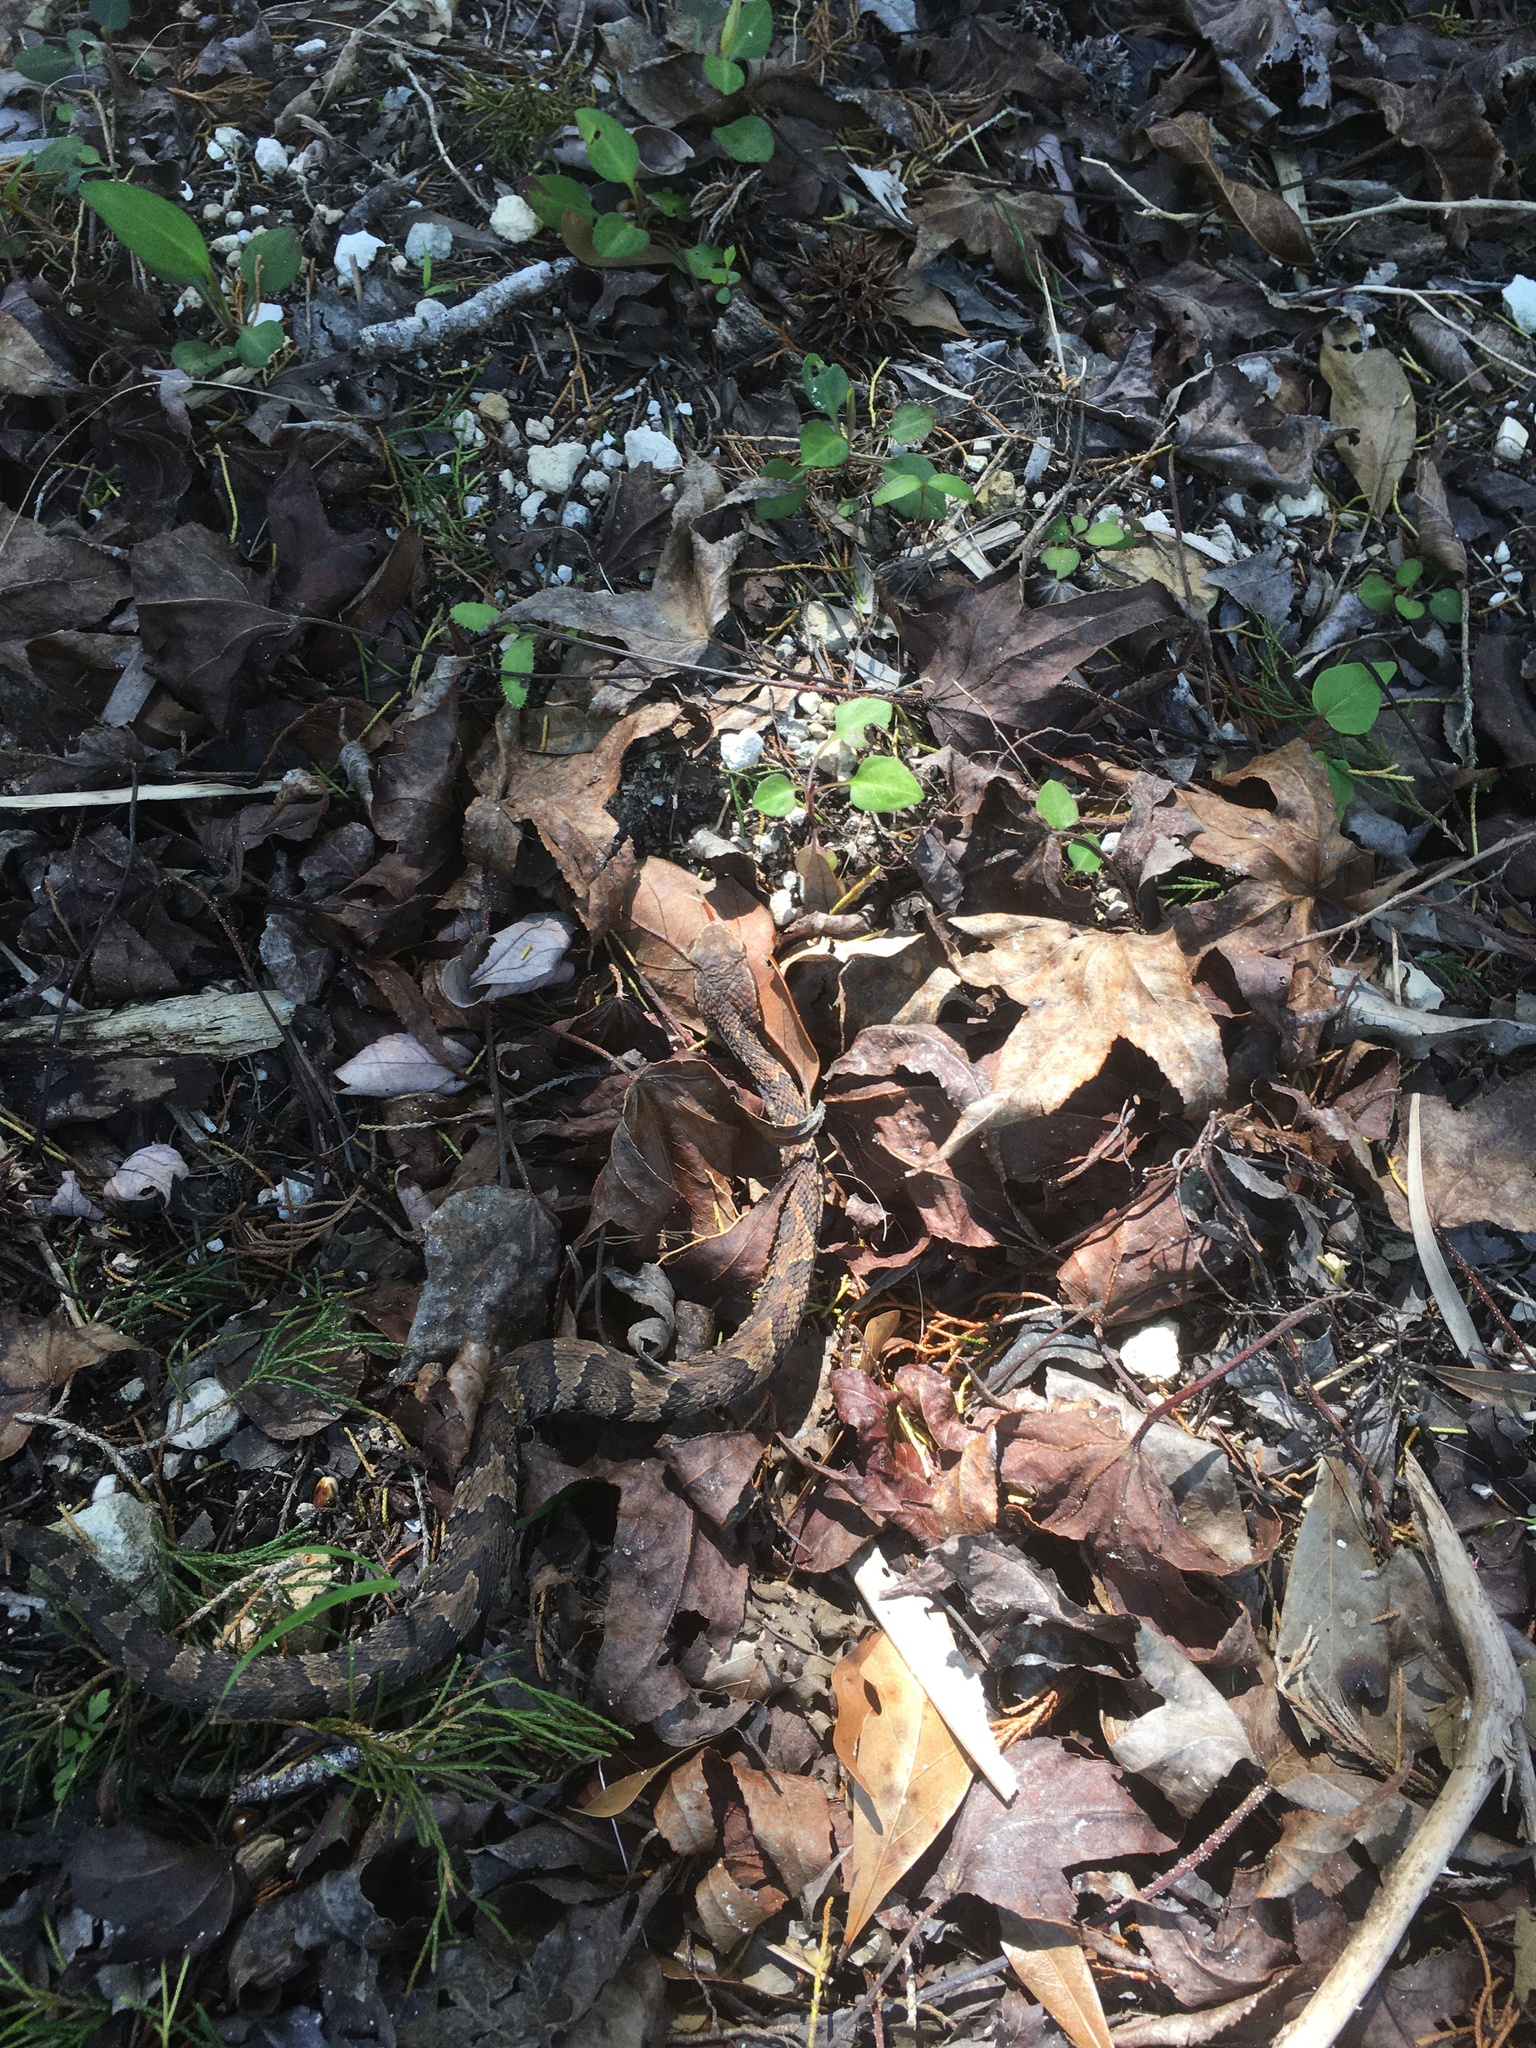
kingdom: Animalia
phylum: Chordata
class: Squamata
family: Viperidae
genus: Agkistrodon
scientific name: Agkistrodon conanti
